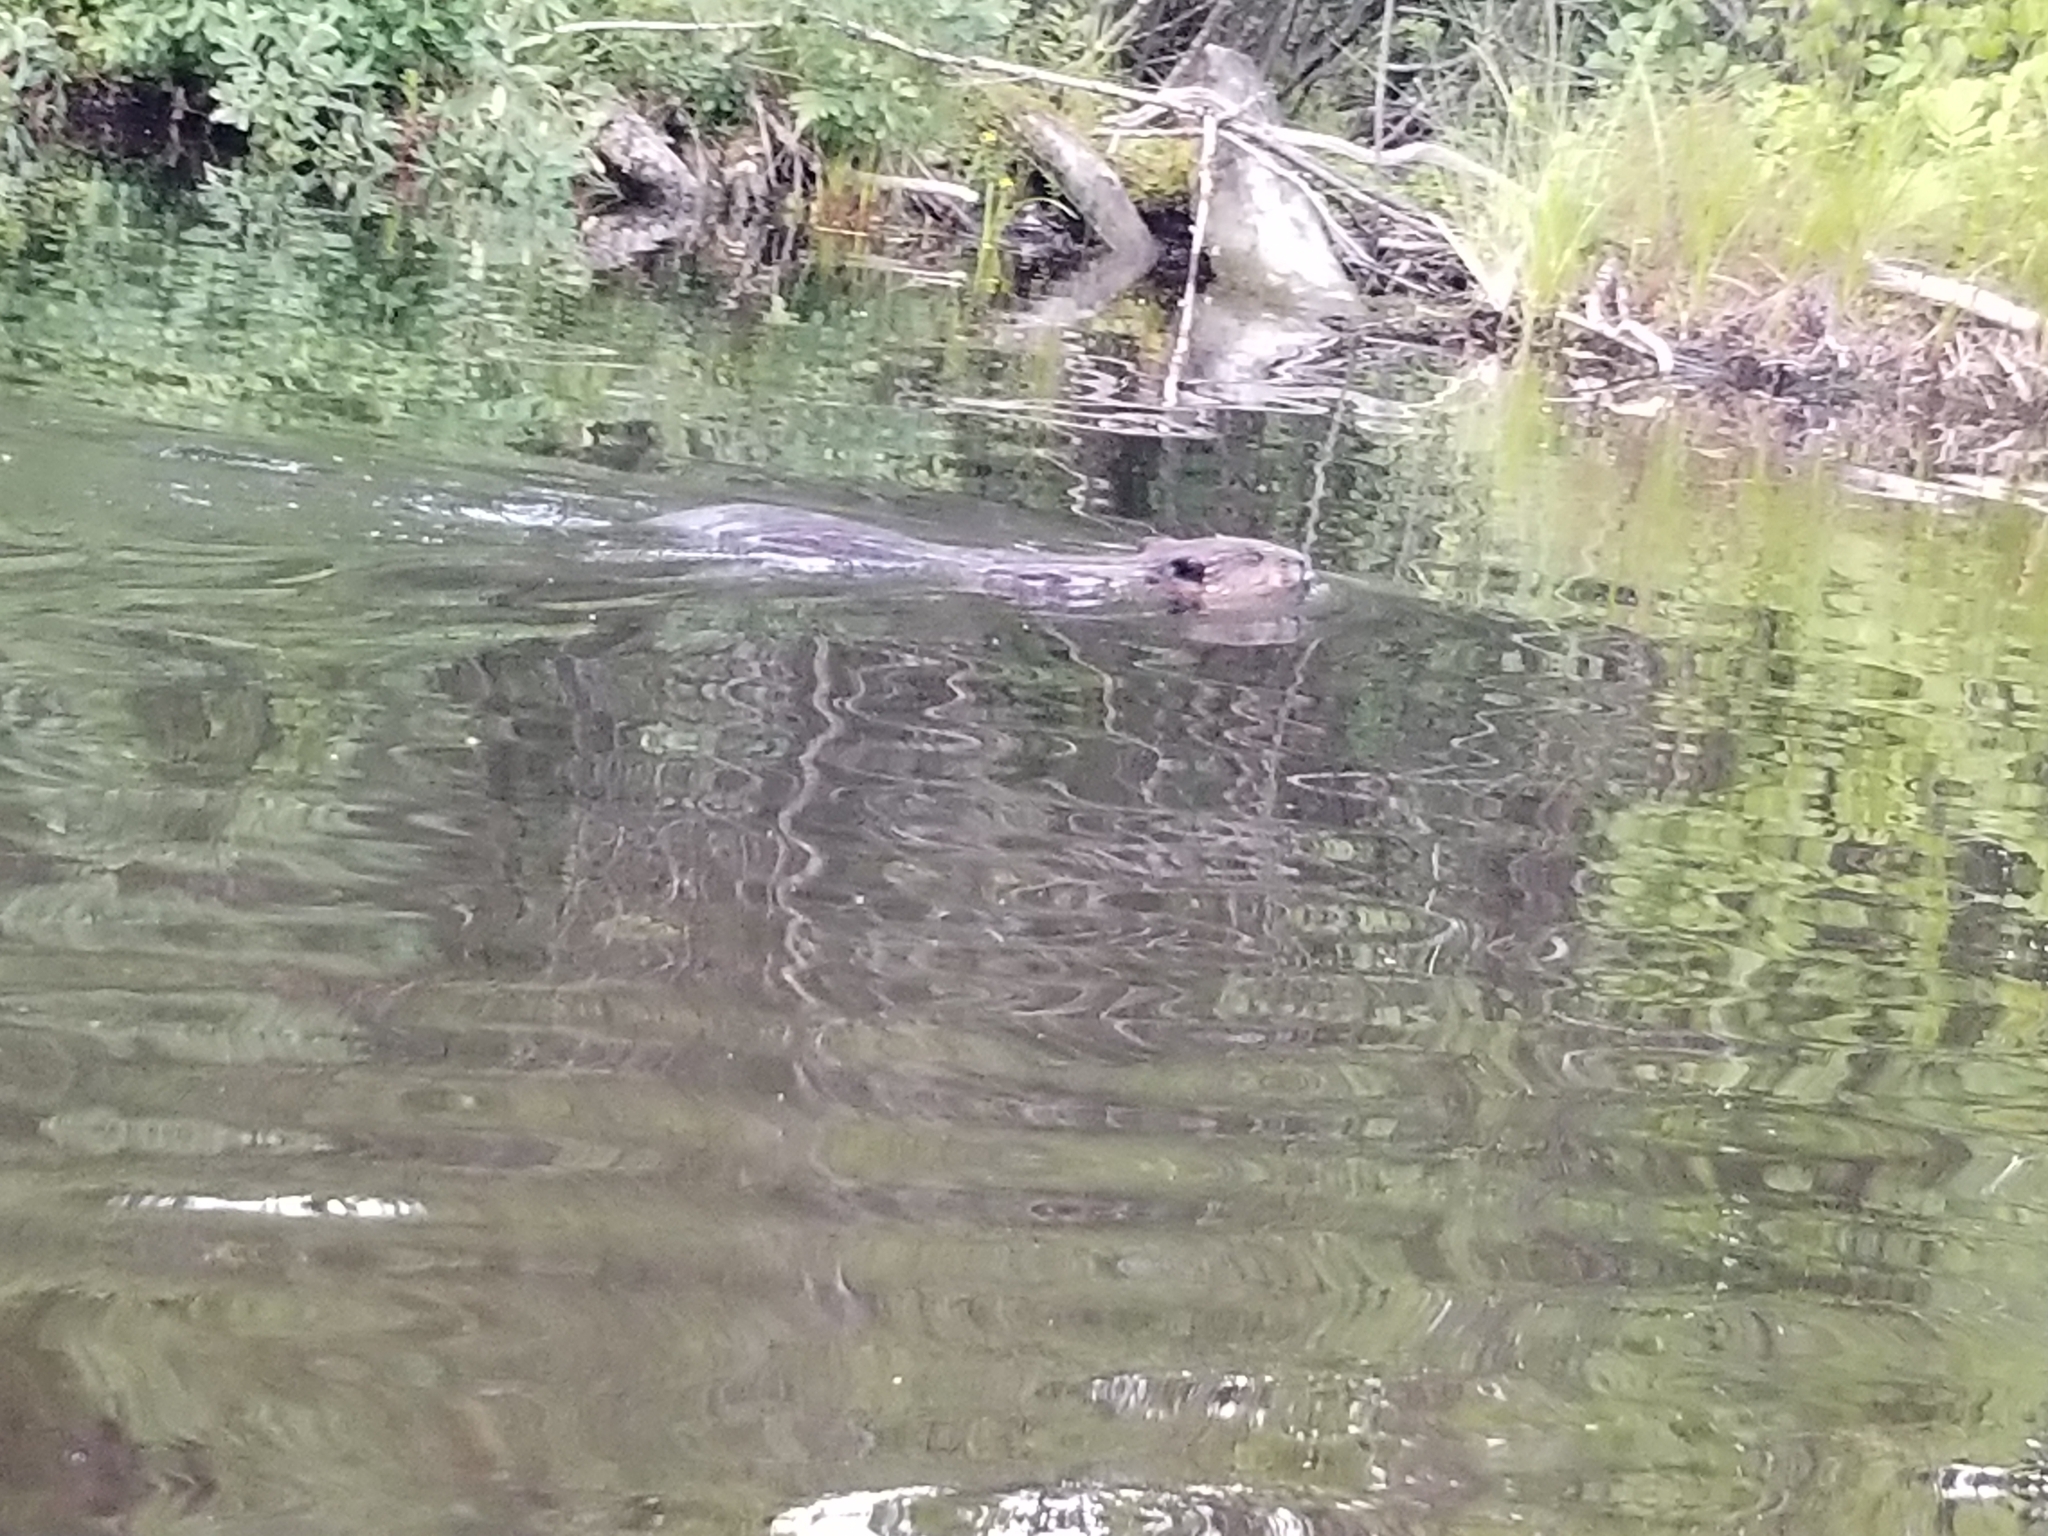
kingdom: Animalia
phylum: Chordata
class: Mammalia
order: Rodentia
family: Castoridae
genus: Castor
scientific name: Castor canadensis
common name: American beaver
